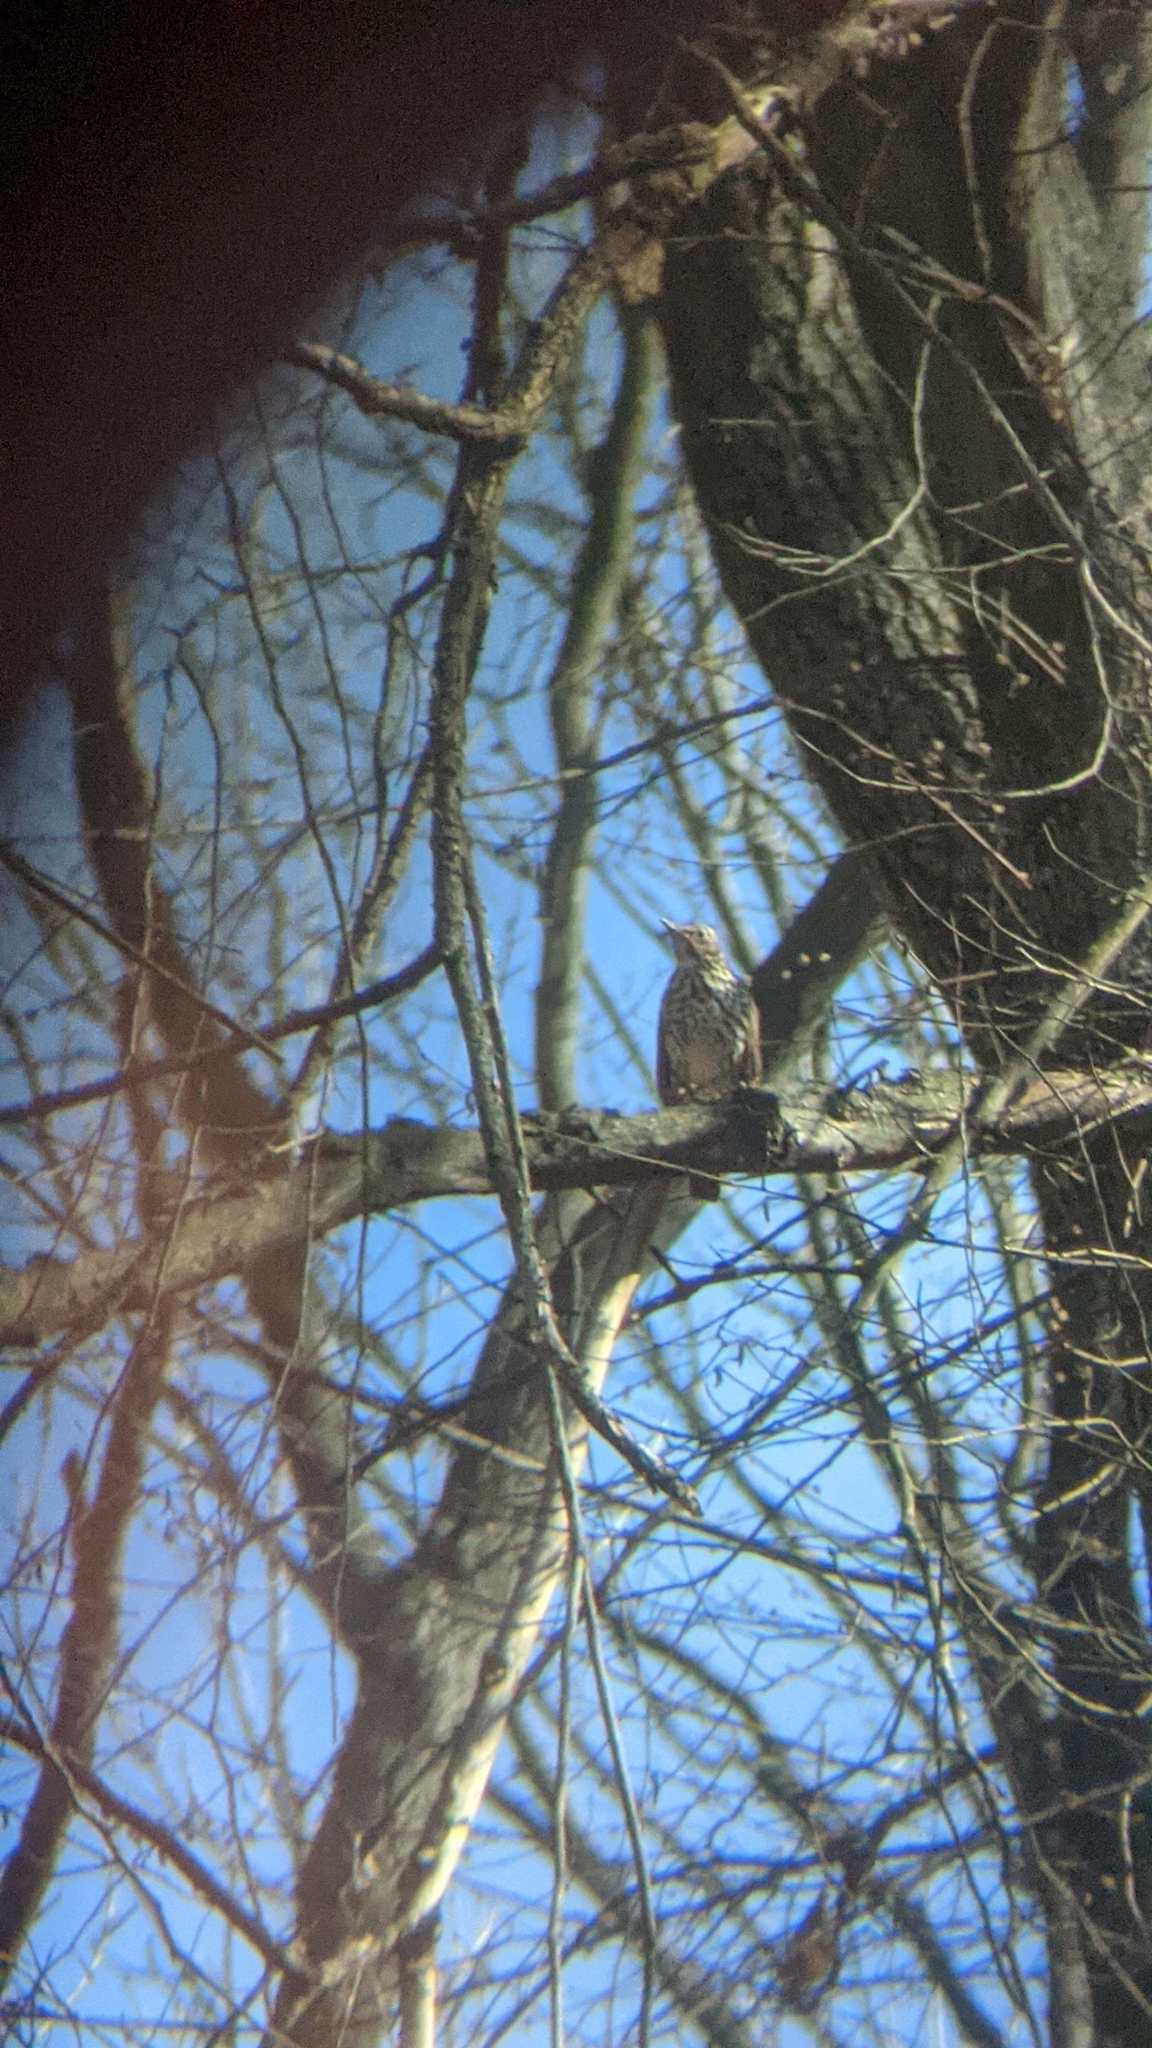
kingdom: Animalia
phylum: Chordata
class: Aves
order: Passeriformes
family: Turdidae
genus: Turdus
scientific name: Turdus philomelos
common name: Song thrush
